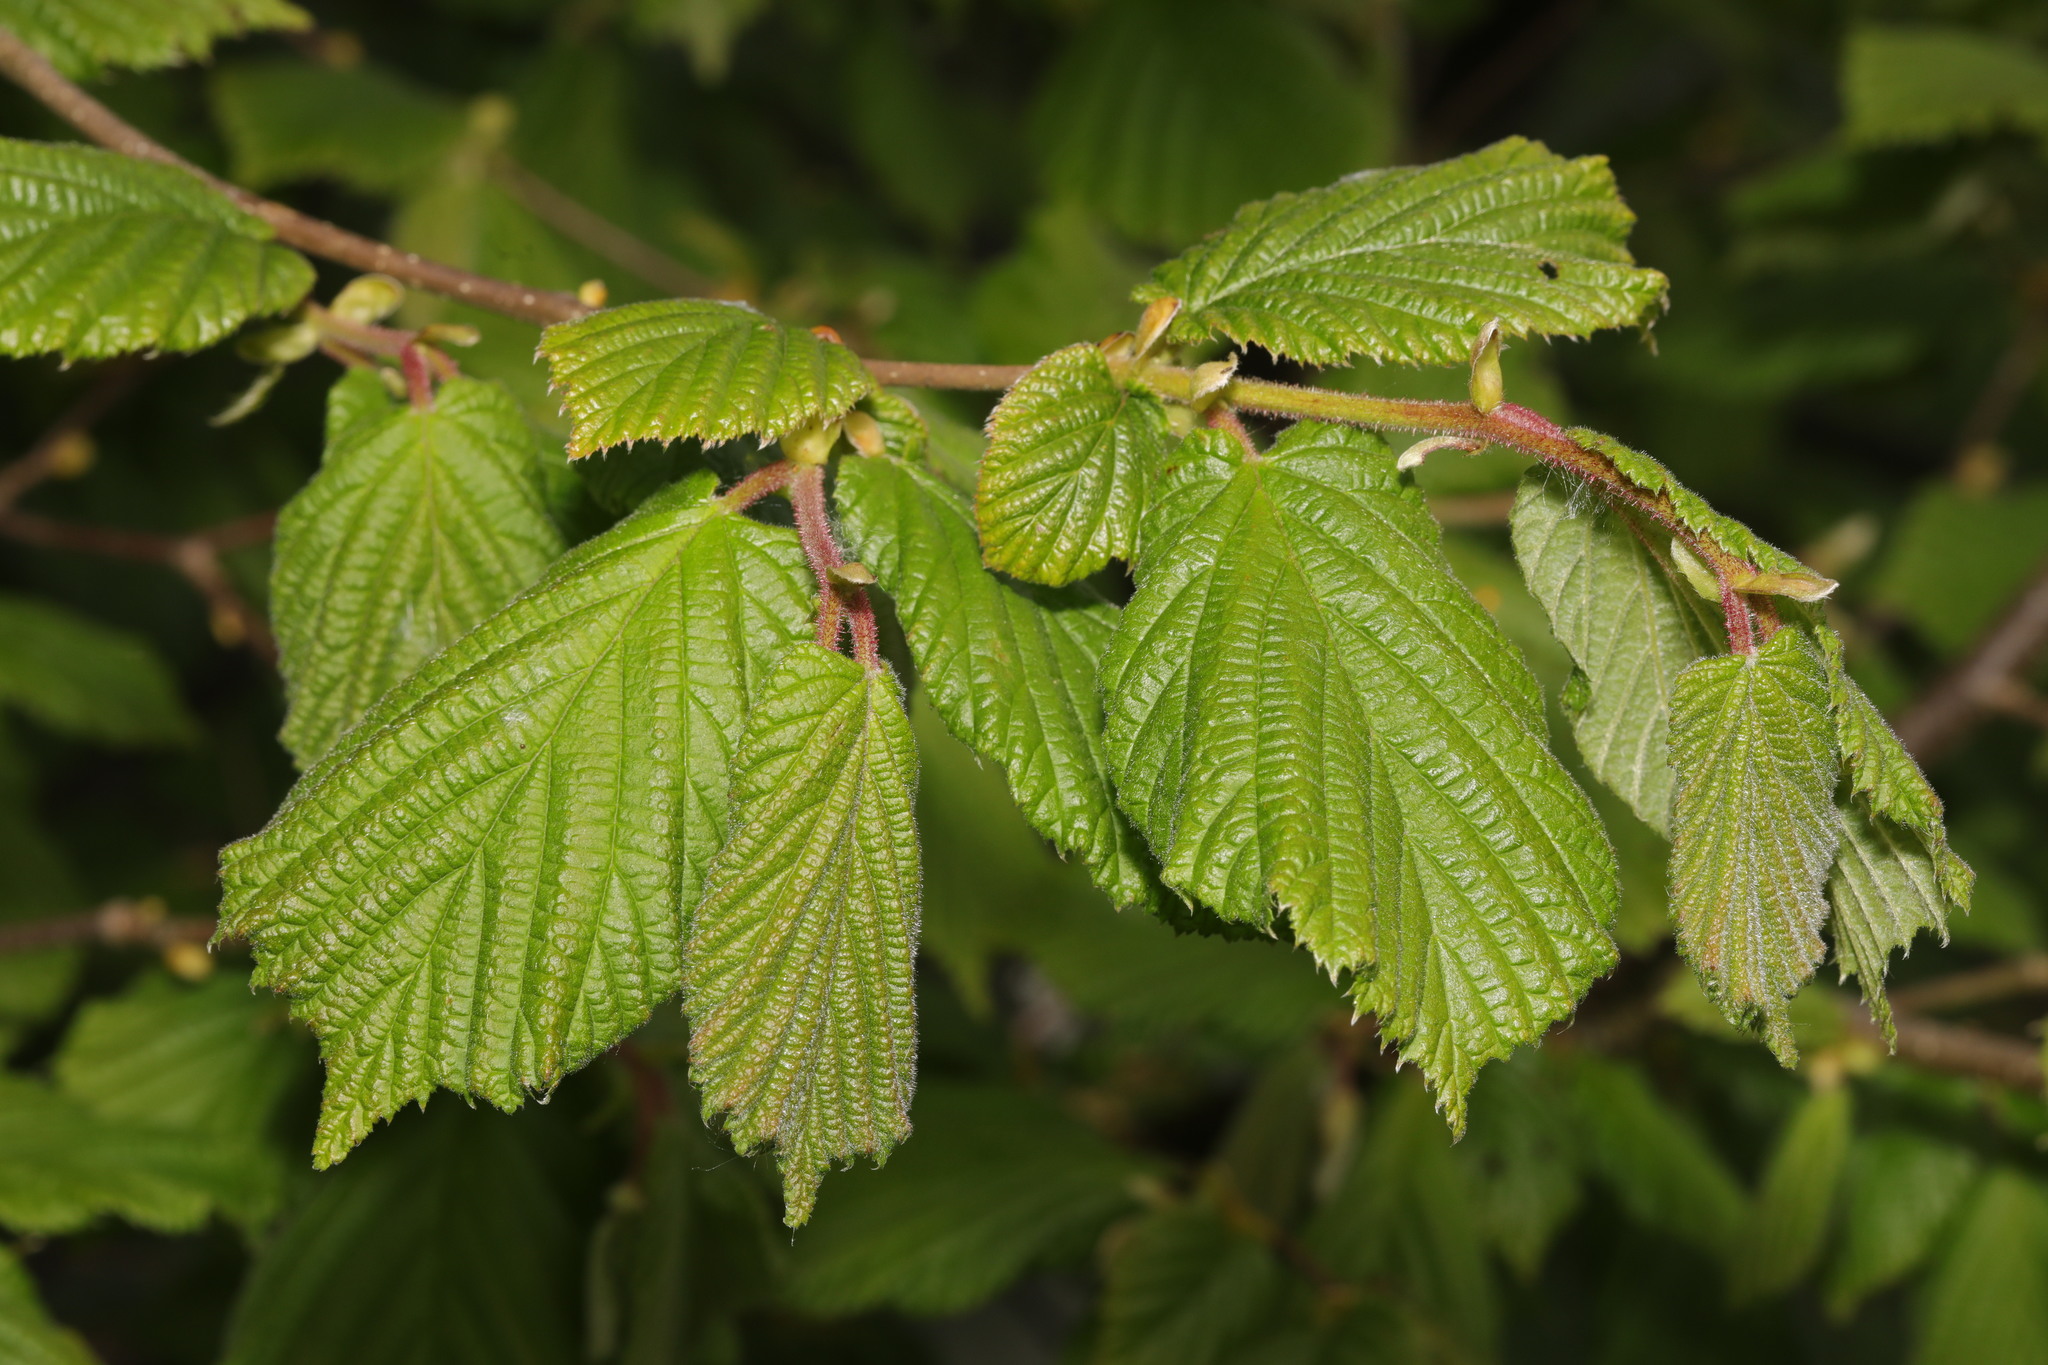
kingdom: Plantae
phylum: Tracheophyta
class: Magnoliopsida
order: Fagales
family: Betulaceae
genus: Corylus
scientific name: Corylus avellana
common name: European hazel
